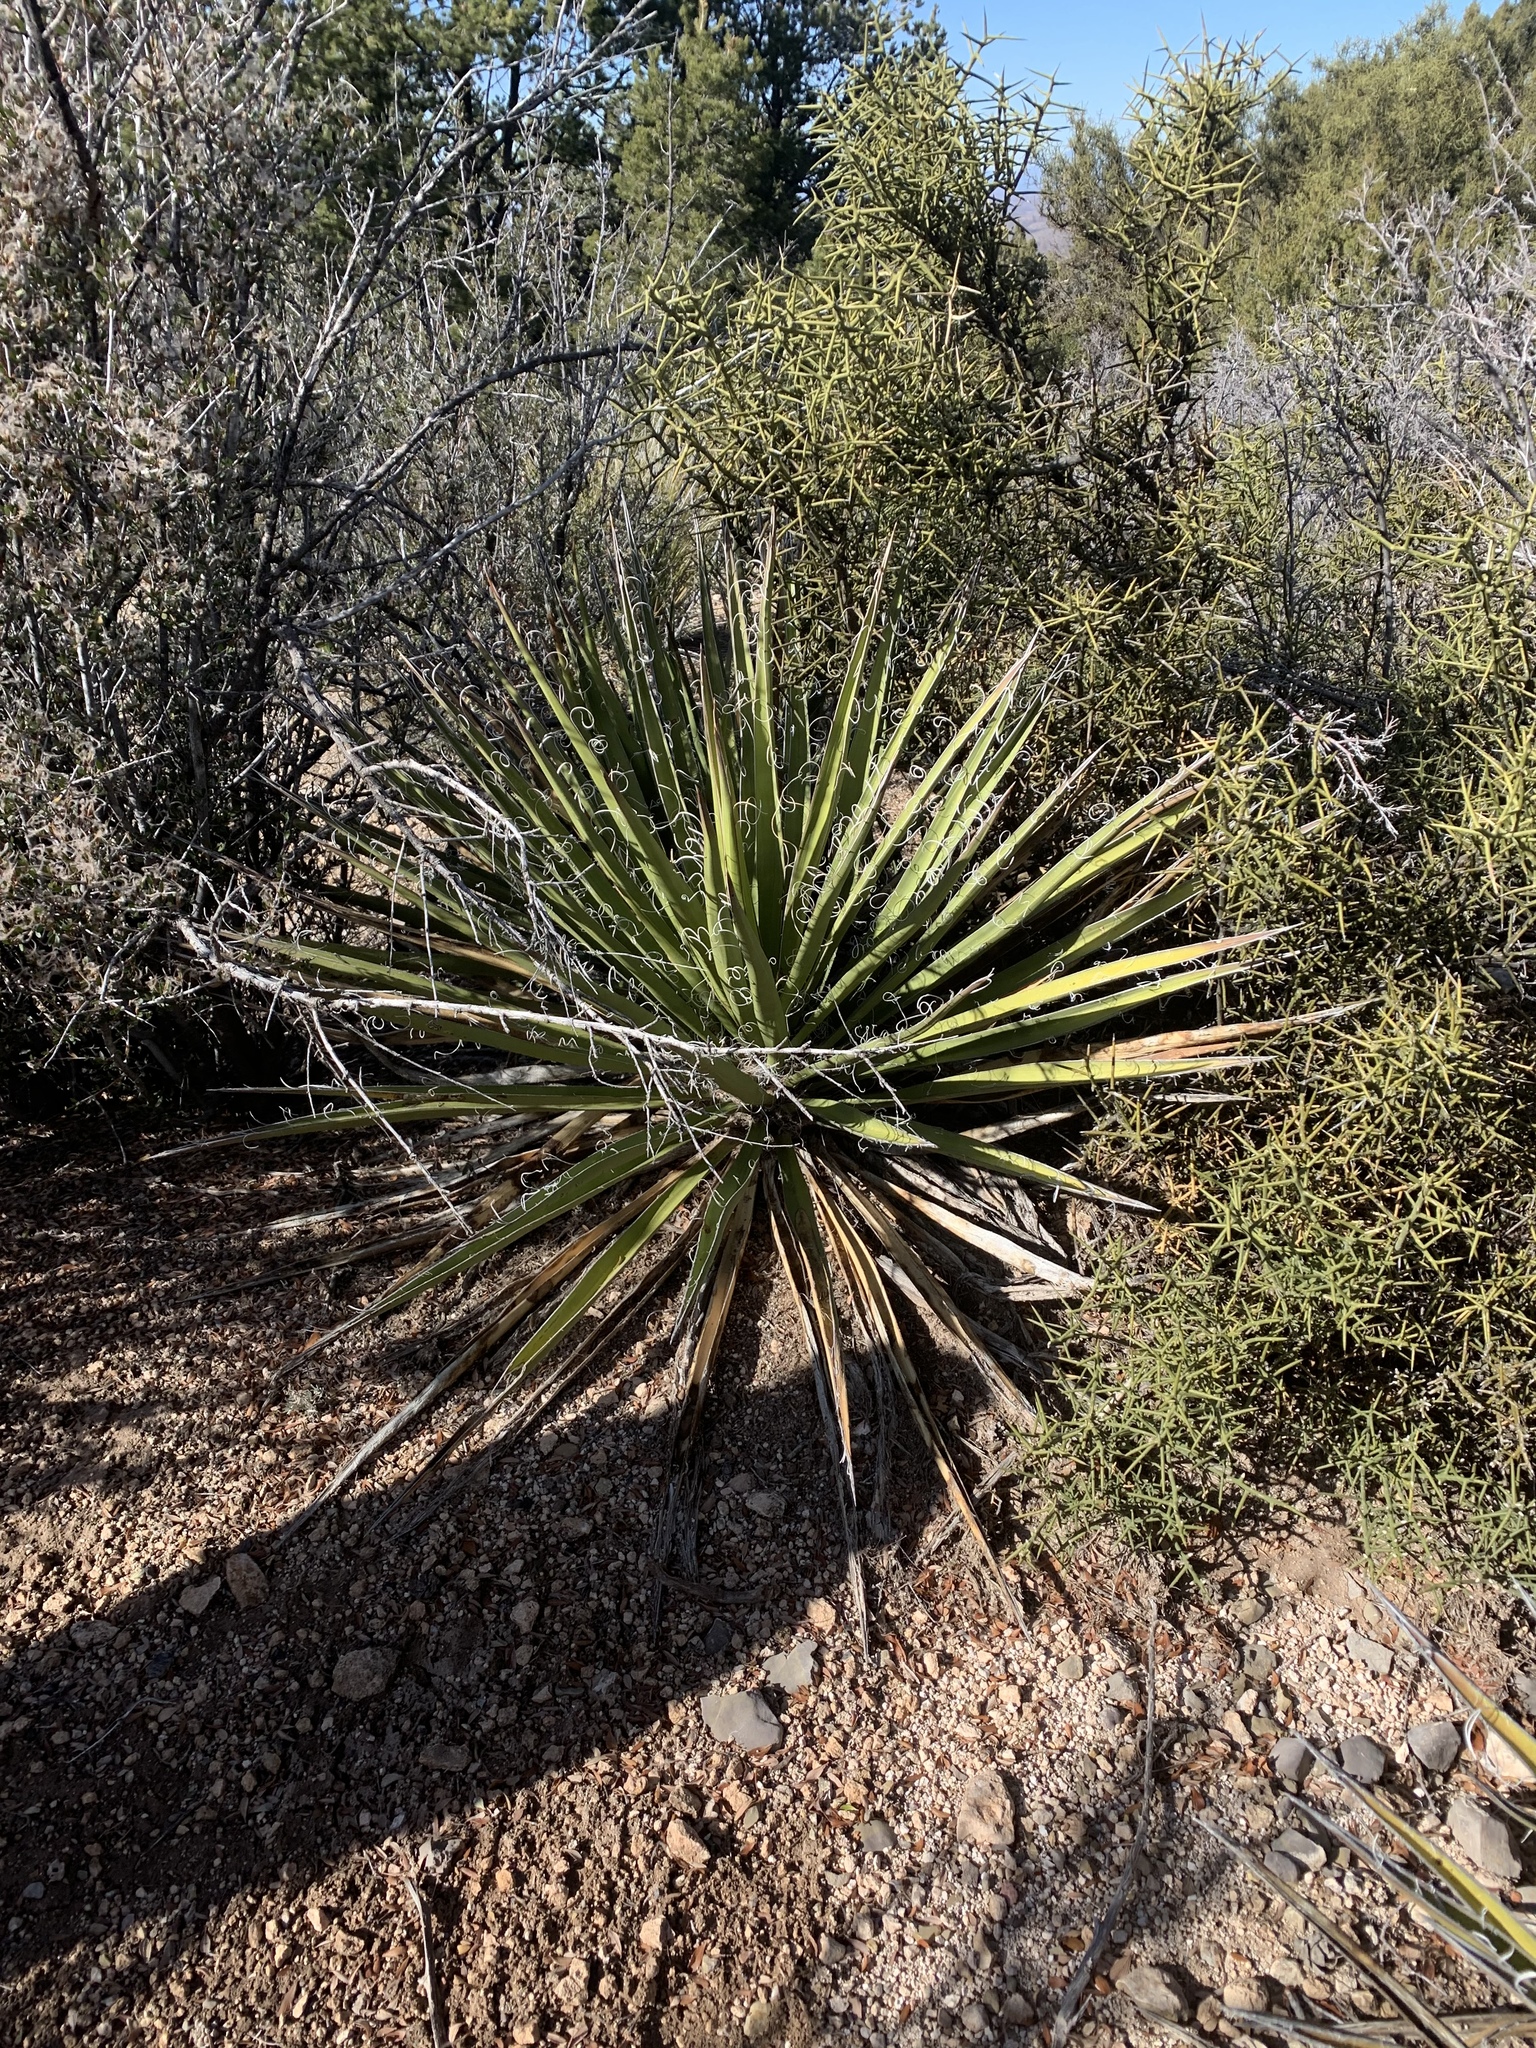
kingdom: Plantae
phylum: Tracheophyta
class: Liliopsida
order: Asparagales
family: Asparagaceae
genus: Yucca
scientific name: Yucca baccata
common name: Banana yucca
